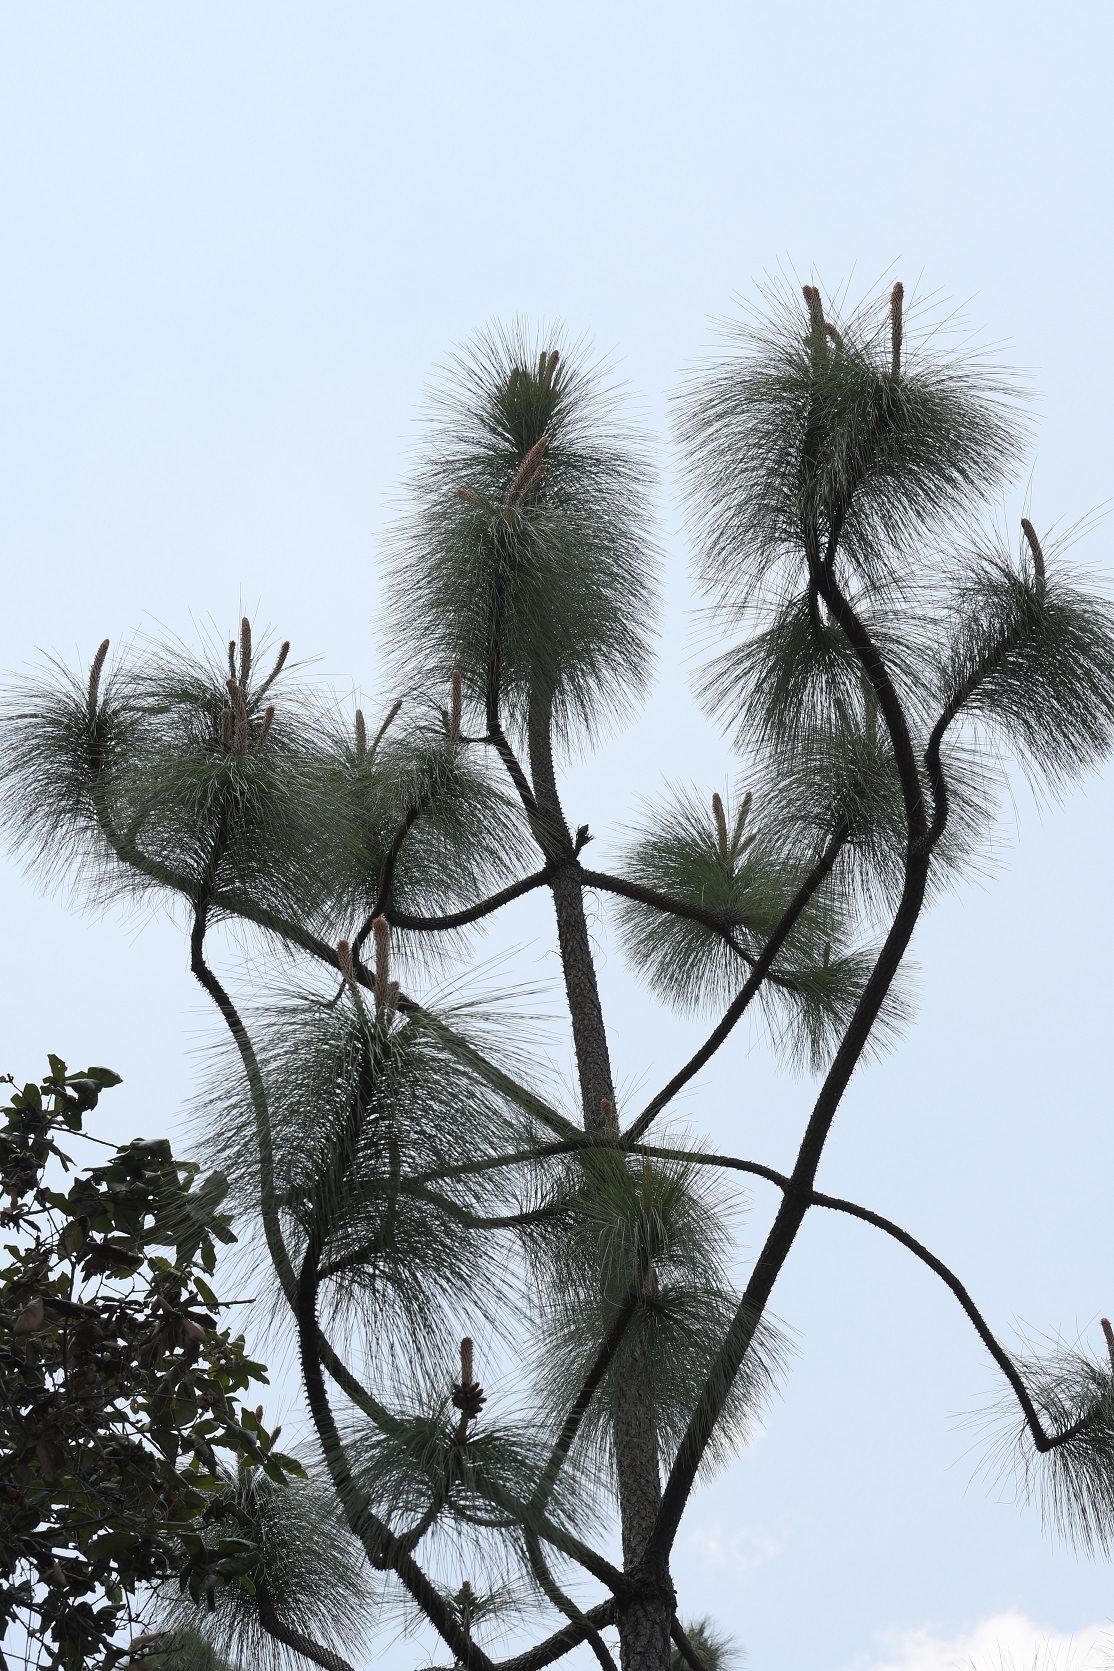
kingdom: Plantae
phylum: Tracheophyta
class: Pinopsida
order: Pinales
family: Pinaceae
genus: Pinus
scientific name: Pinus devoniana
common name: Michoacan pine
